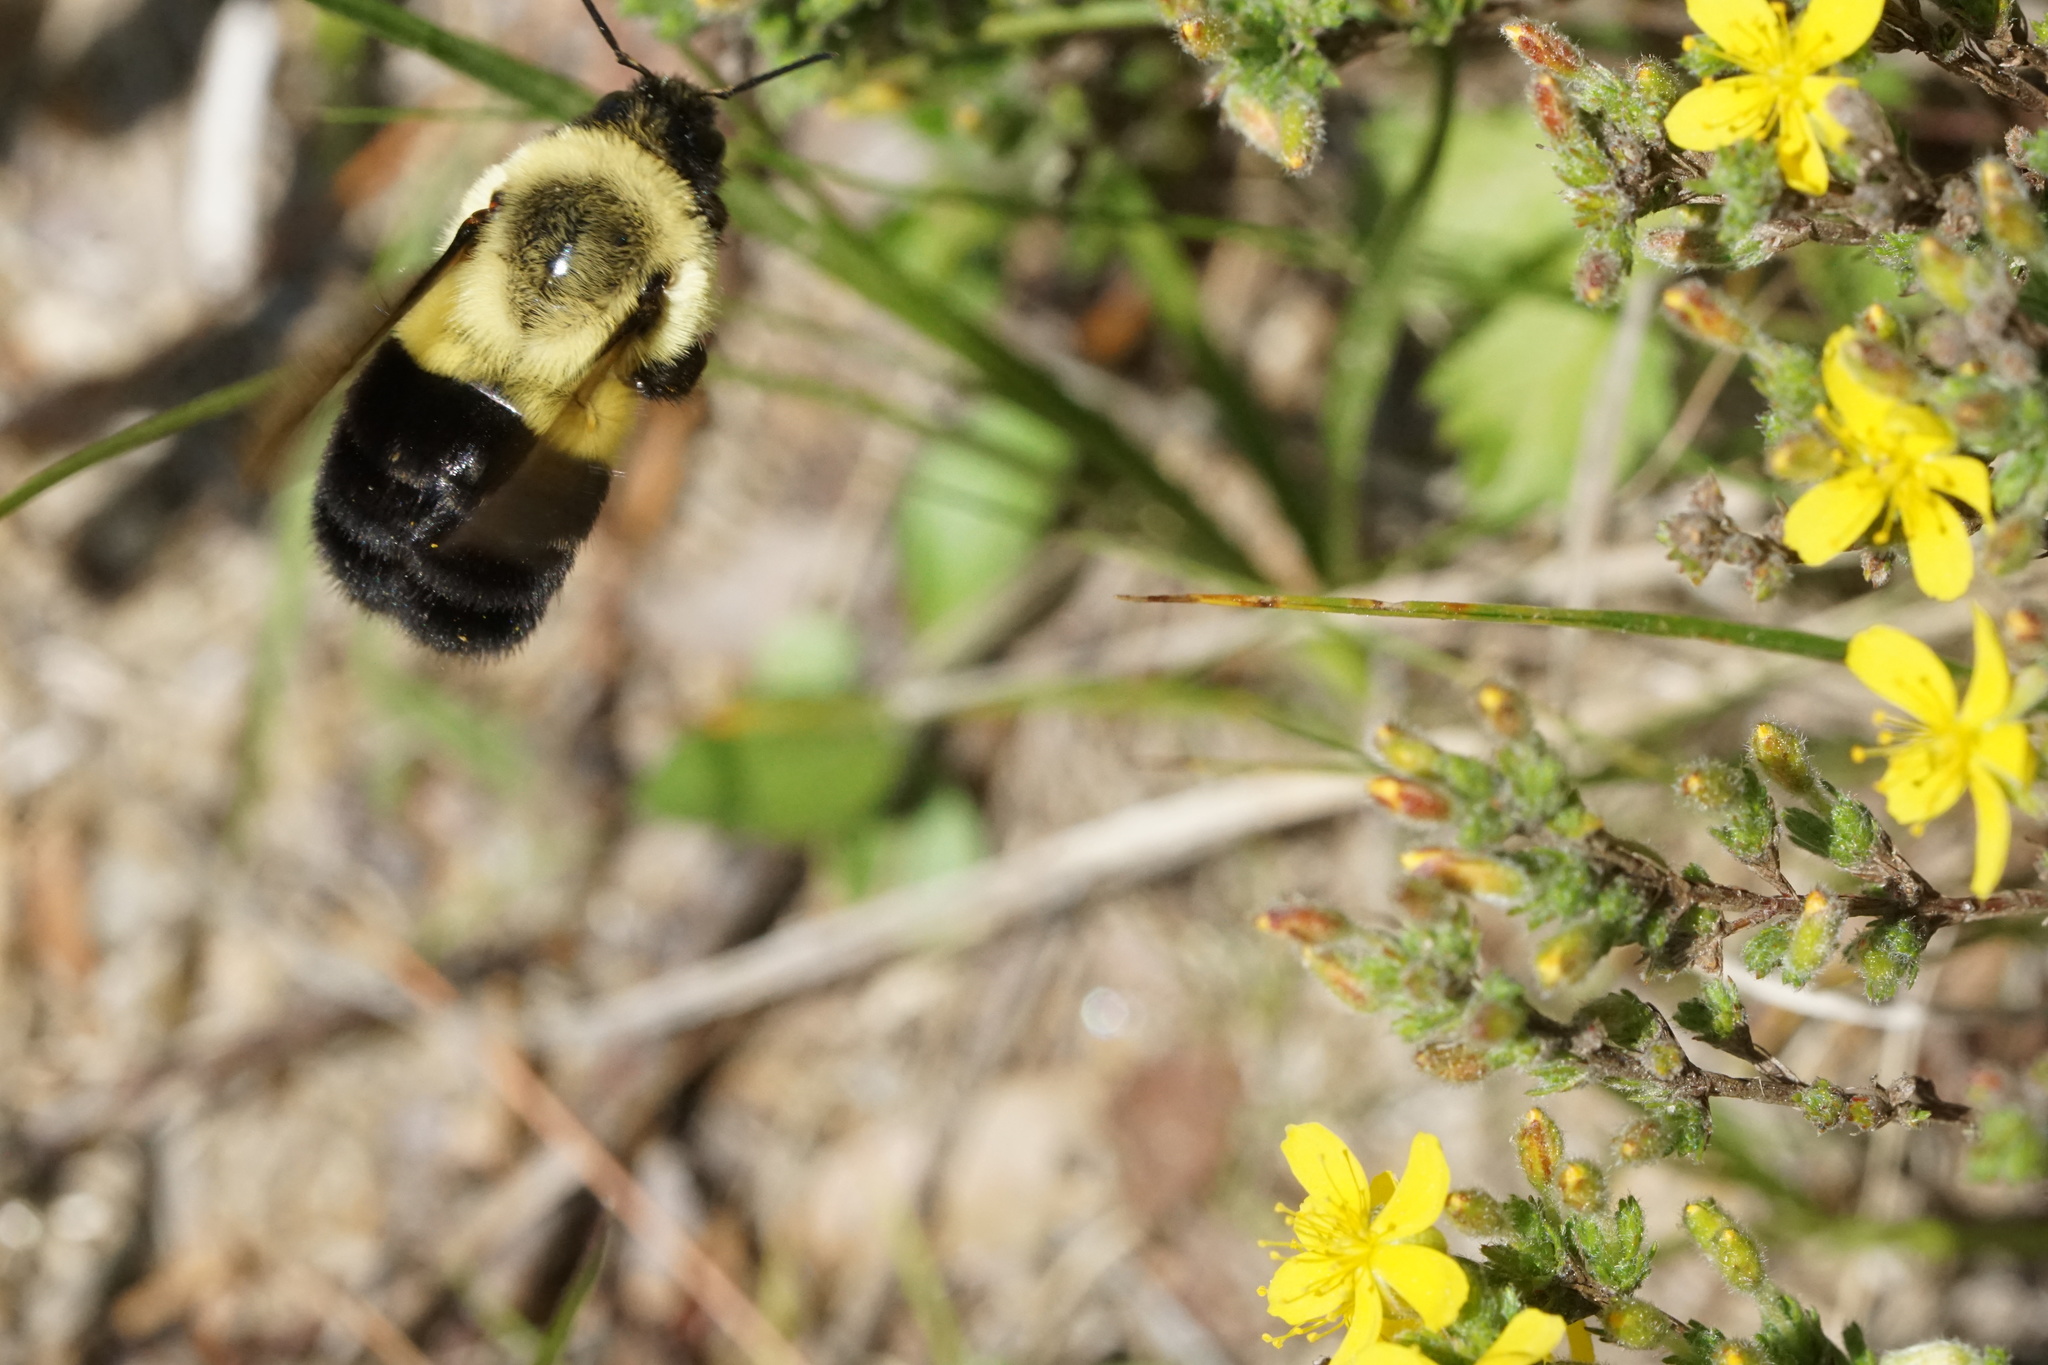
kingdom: Animalia
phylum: Arthropoda
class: Insecta
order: Hymenoptera
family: Apidae
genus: Bombus
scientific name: Bombus impatiens
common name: Common eastern bumble bee
